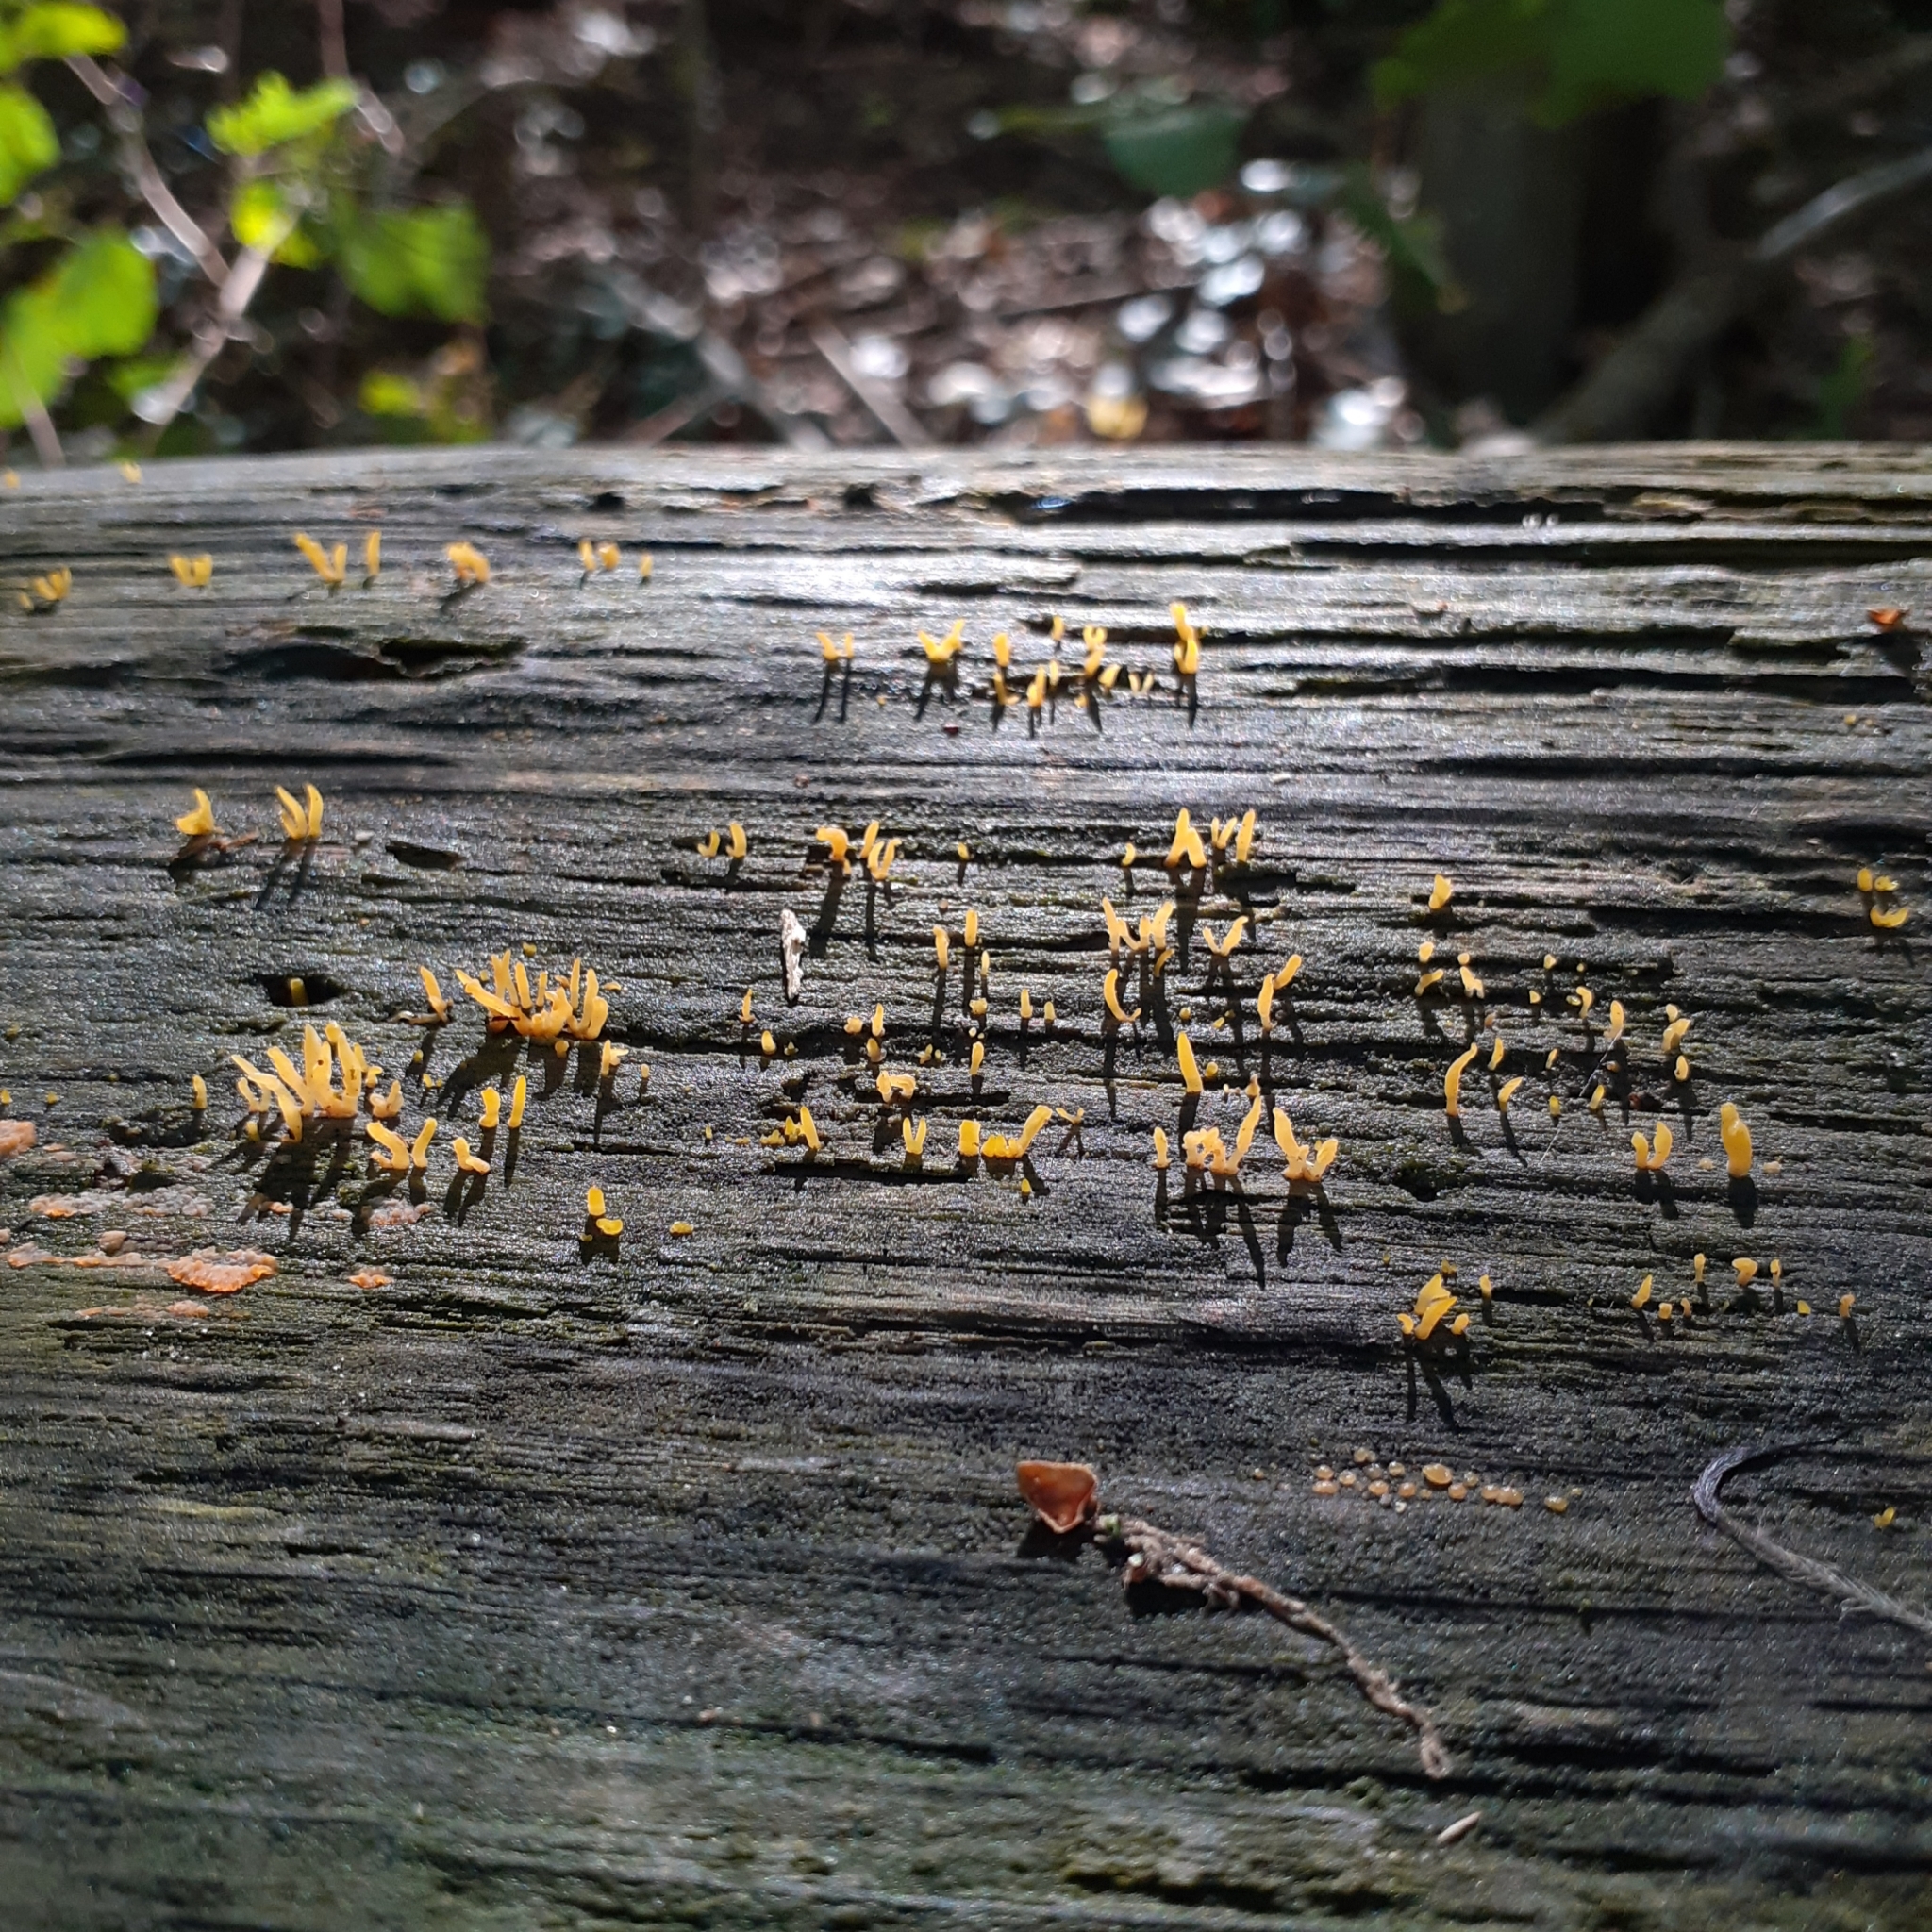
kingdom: Fungi
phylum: Basidiomycota
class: Dacrymycetes
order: Dacrymycetales
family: Dacrymycetaceae
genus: Calocera
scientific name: Calocera cornea
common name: Small stagshorn
